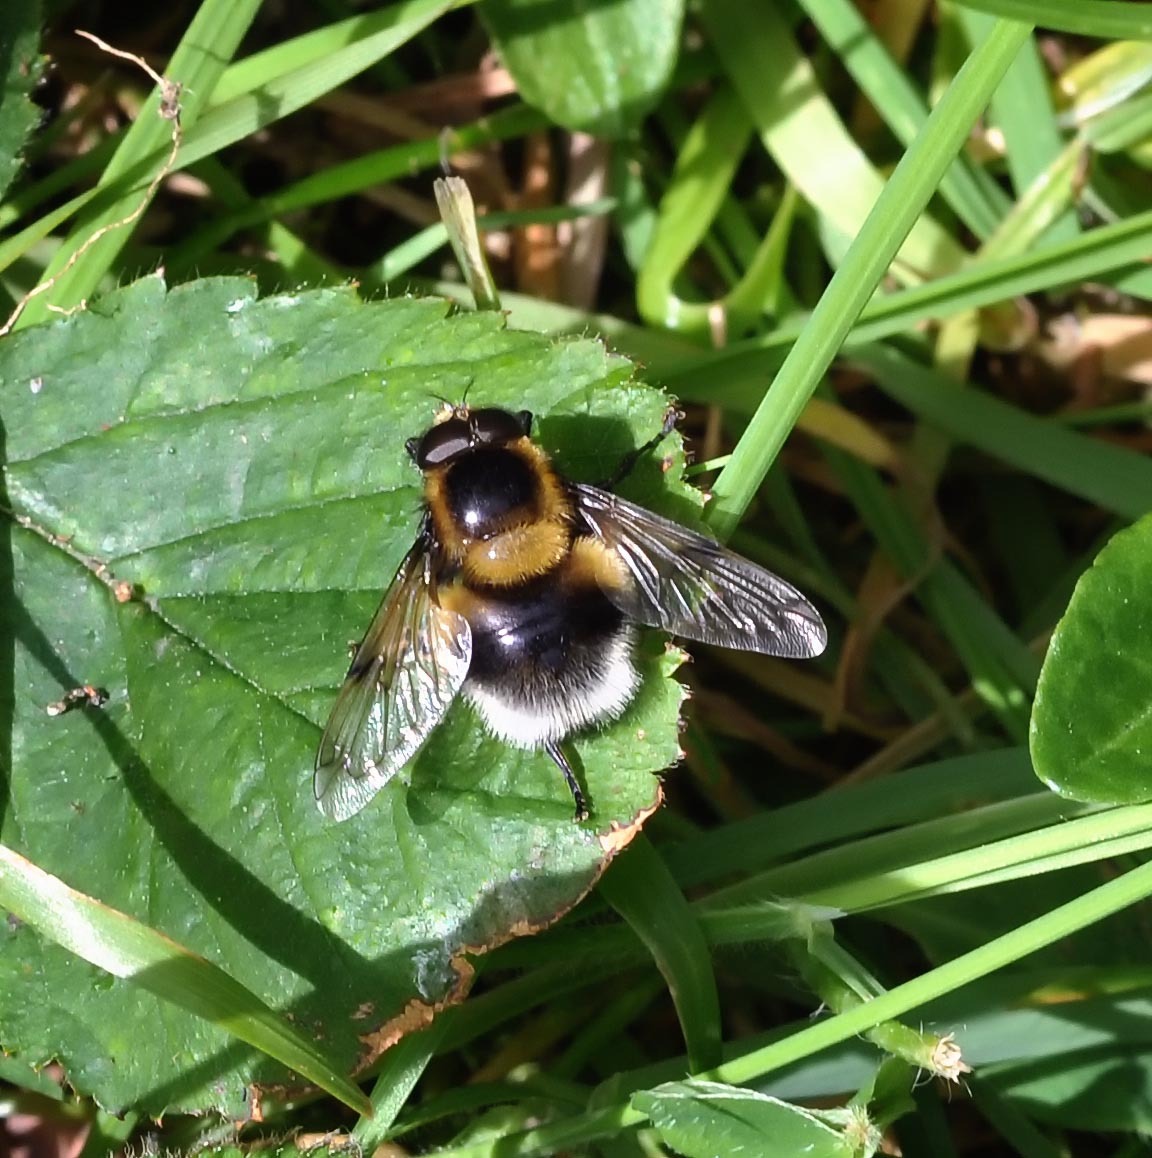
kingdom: Animalia
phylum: Arthropoda
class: Insecta
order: Diptera
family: Syrphidae
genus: Volucella
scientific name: Volucella bombylans
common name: Bumble bee hover fly
